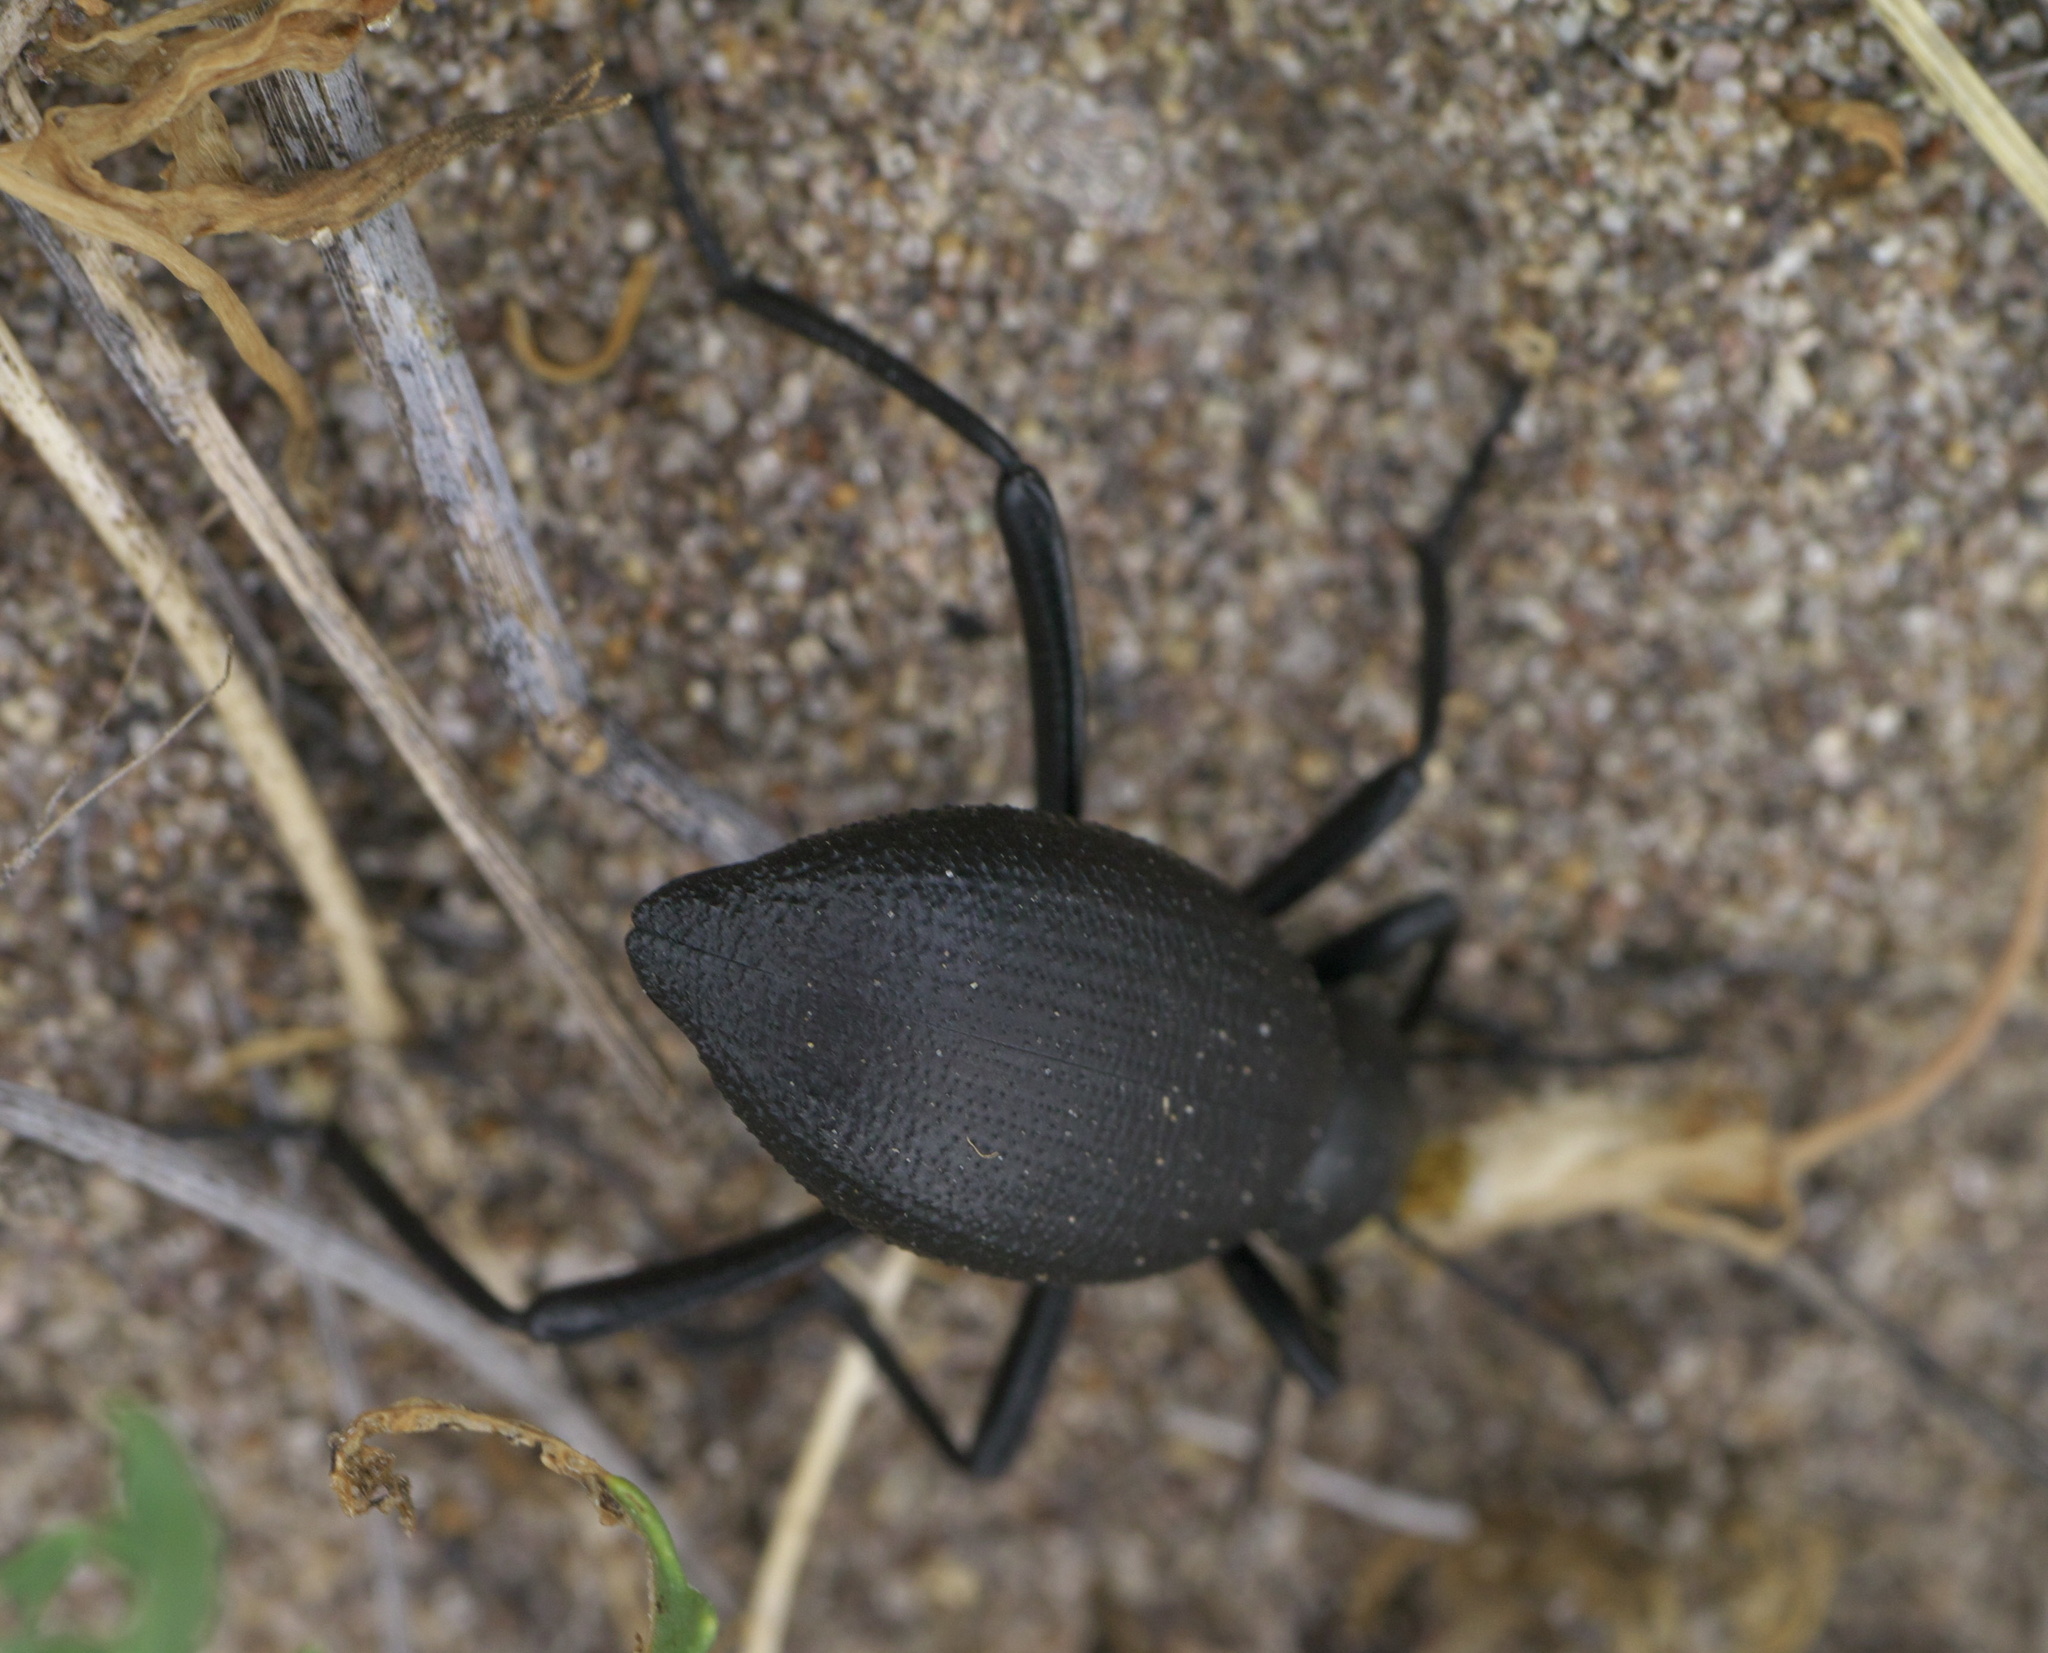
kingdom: Animalia
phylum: Arthropoda
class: Insecta
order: Coleoptera
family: Tenebrionidae
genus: Eleodes
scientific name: Eleodes sponsa
